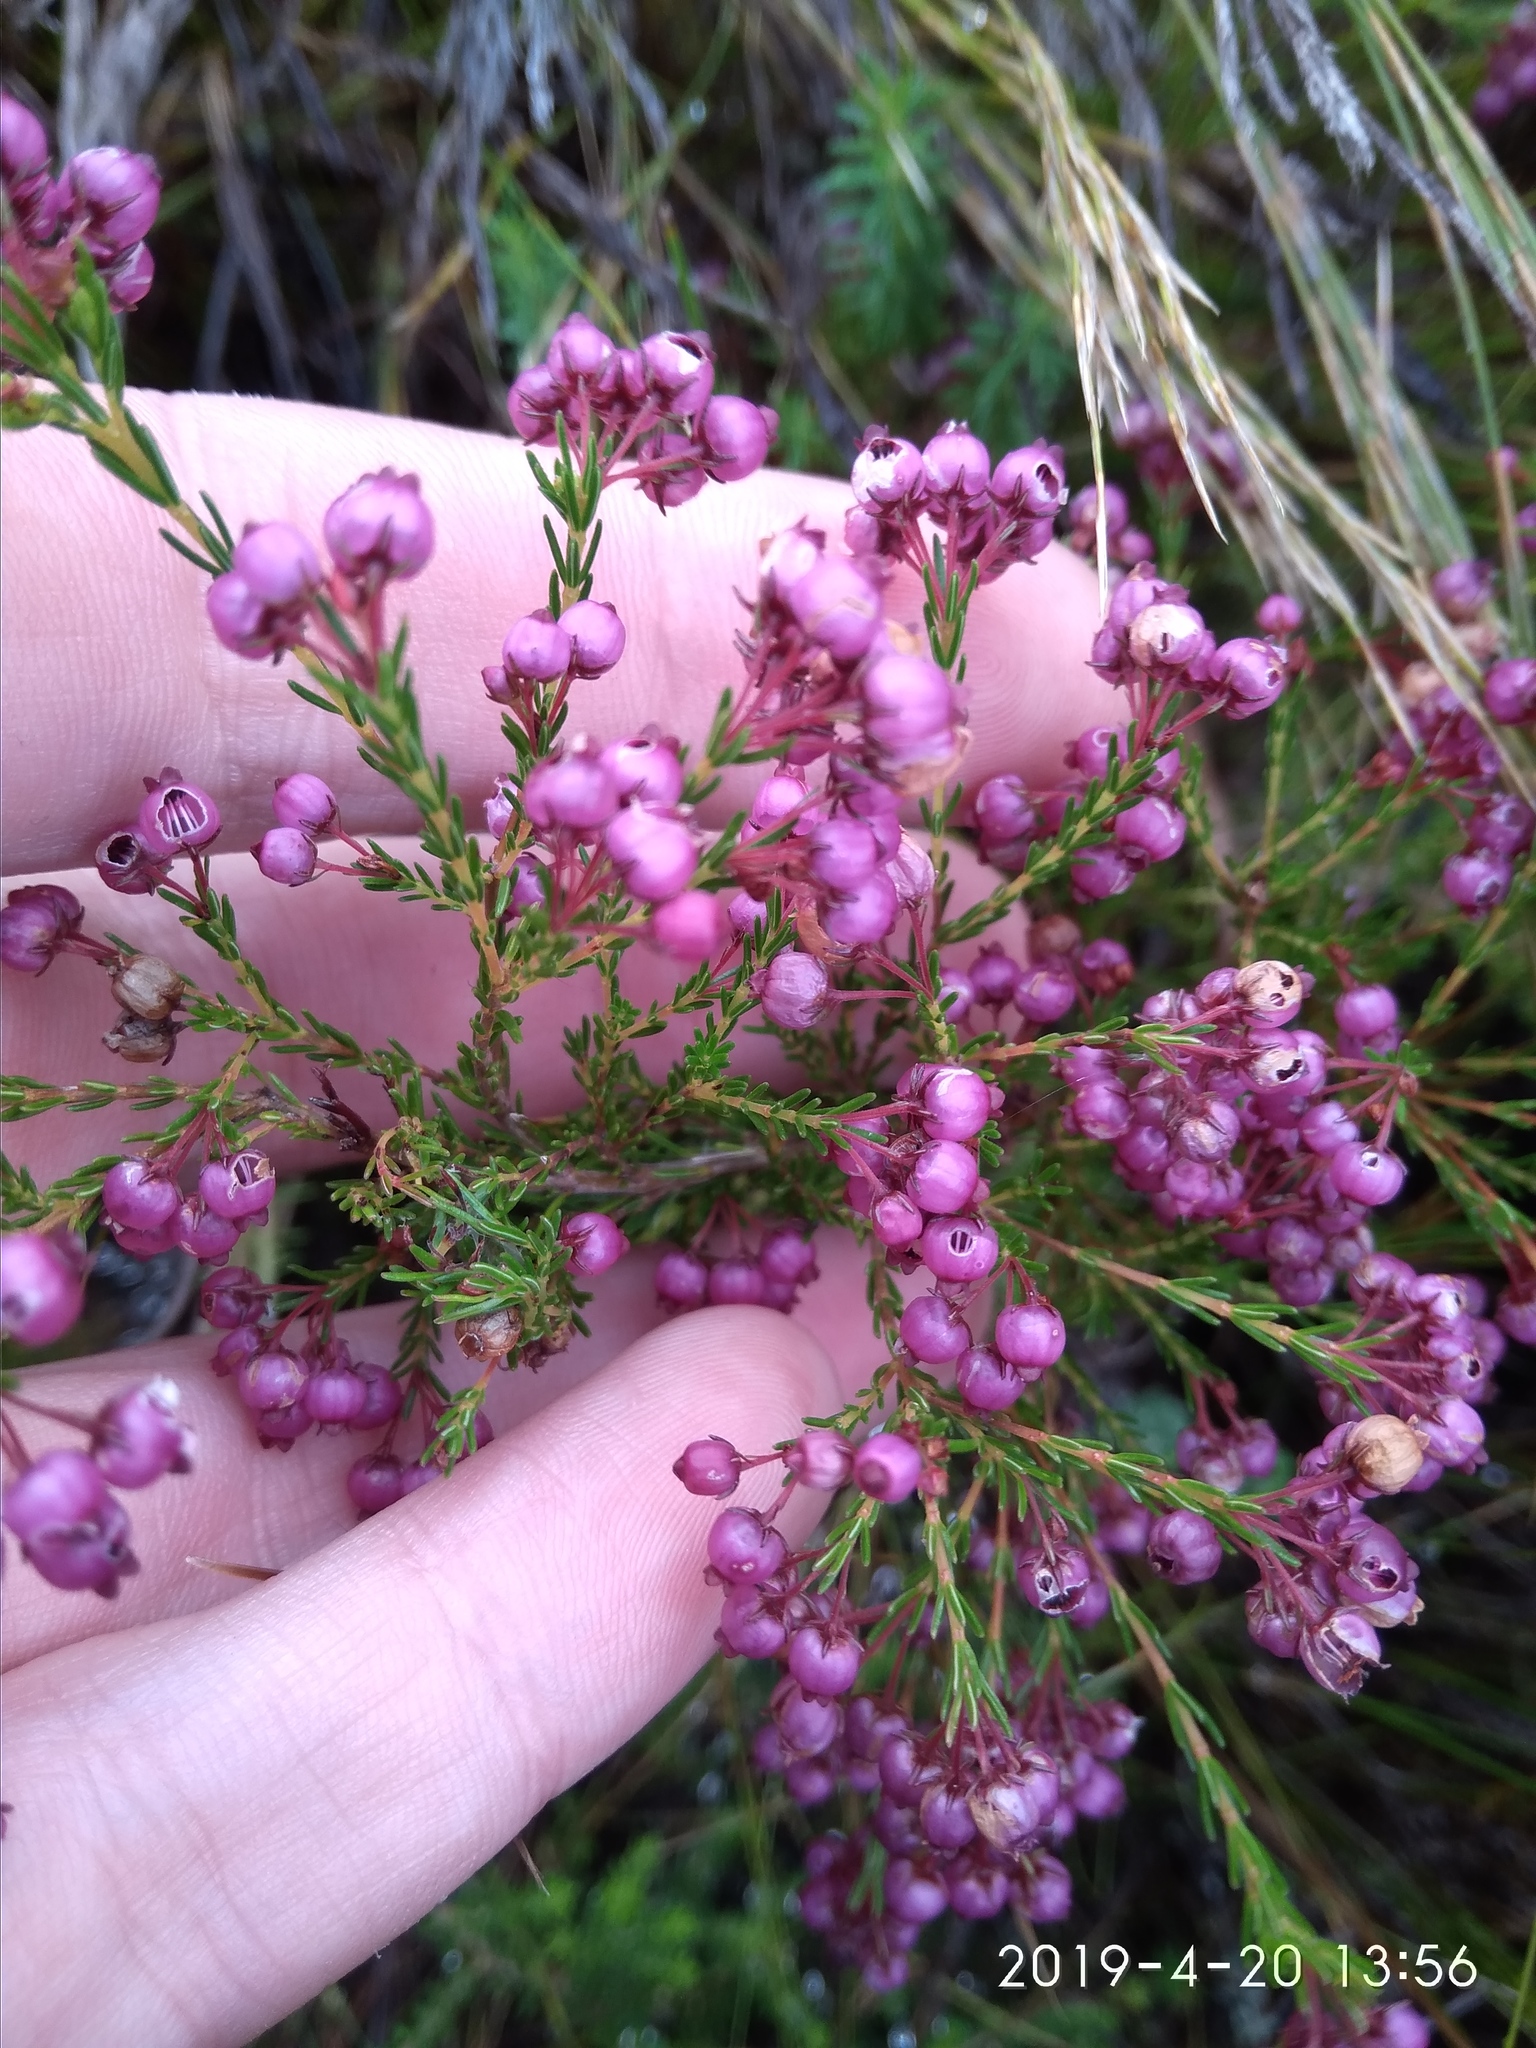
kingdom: Plantae
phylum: Tracheophyta
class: Magnoliopsida
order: Ericales
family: Ericaceae
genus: Erica
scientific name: Erica multumbellifera
